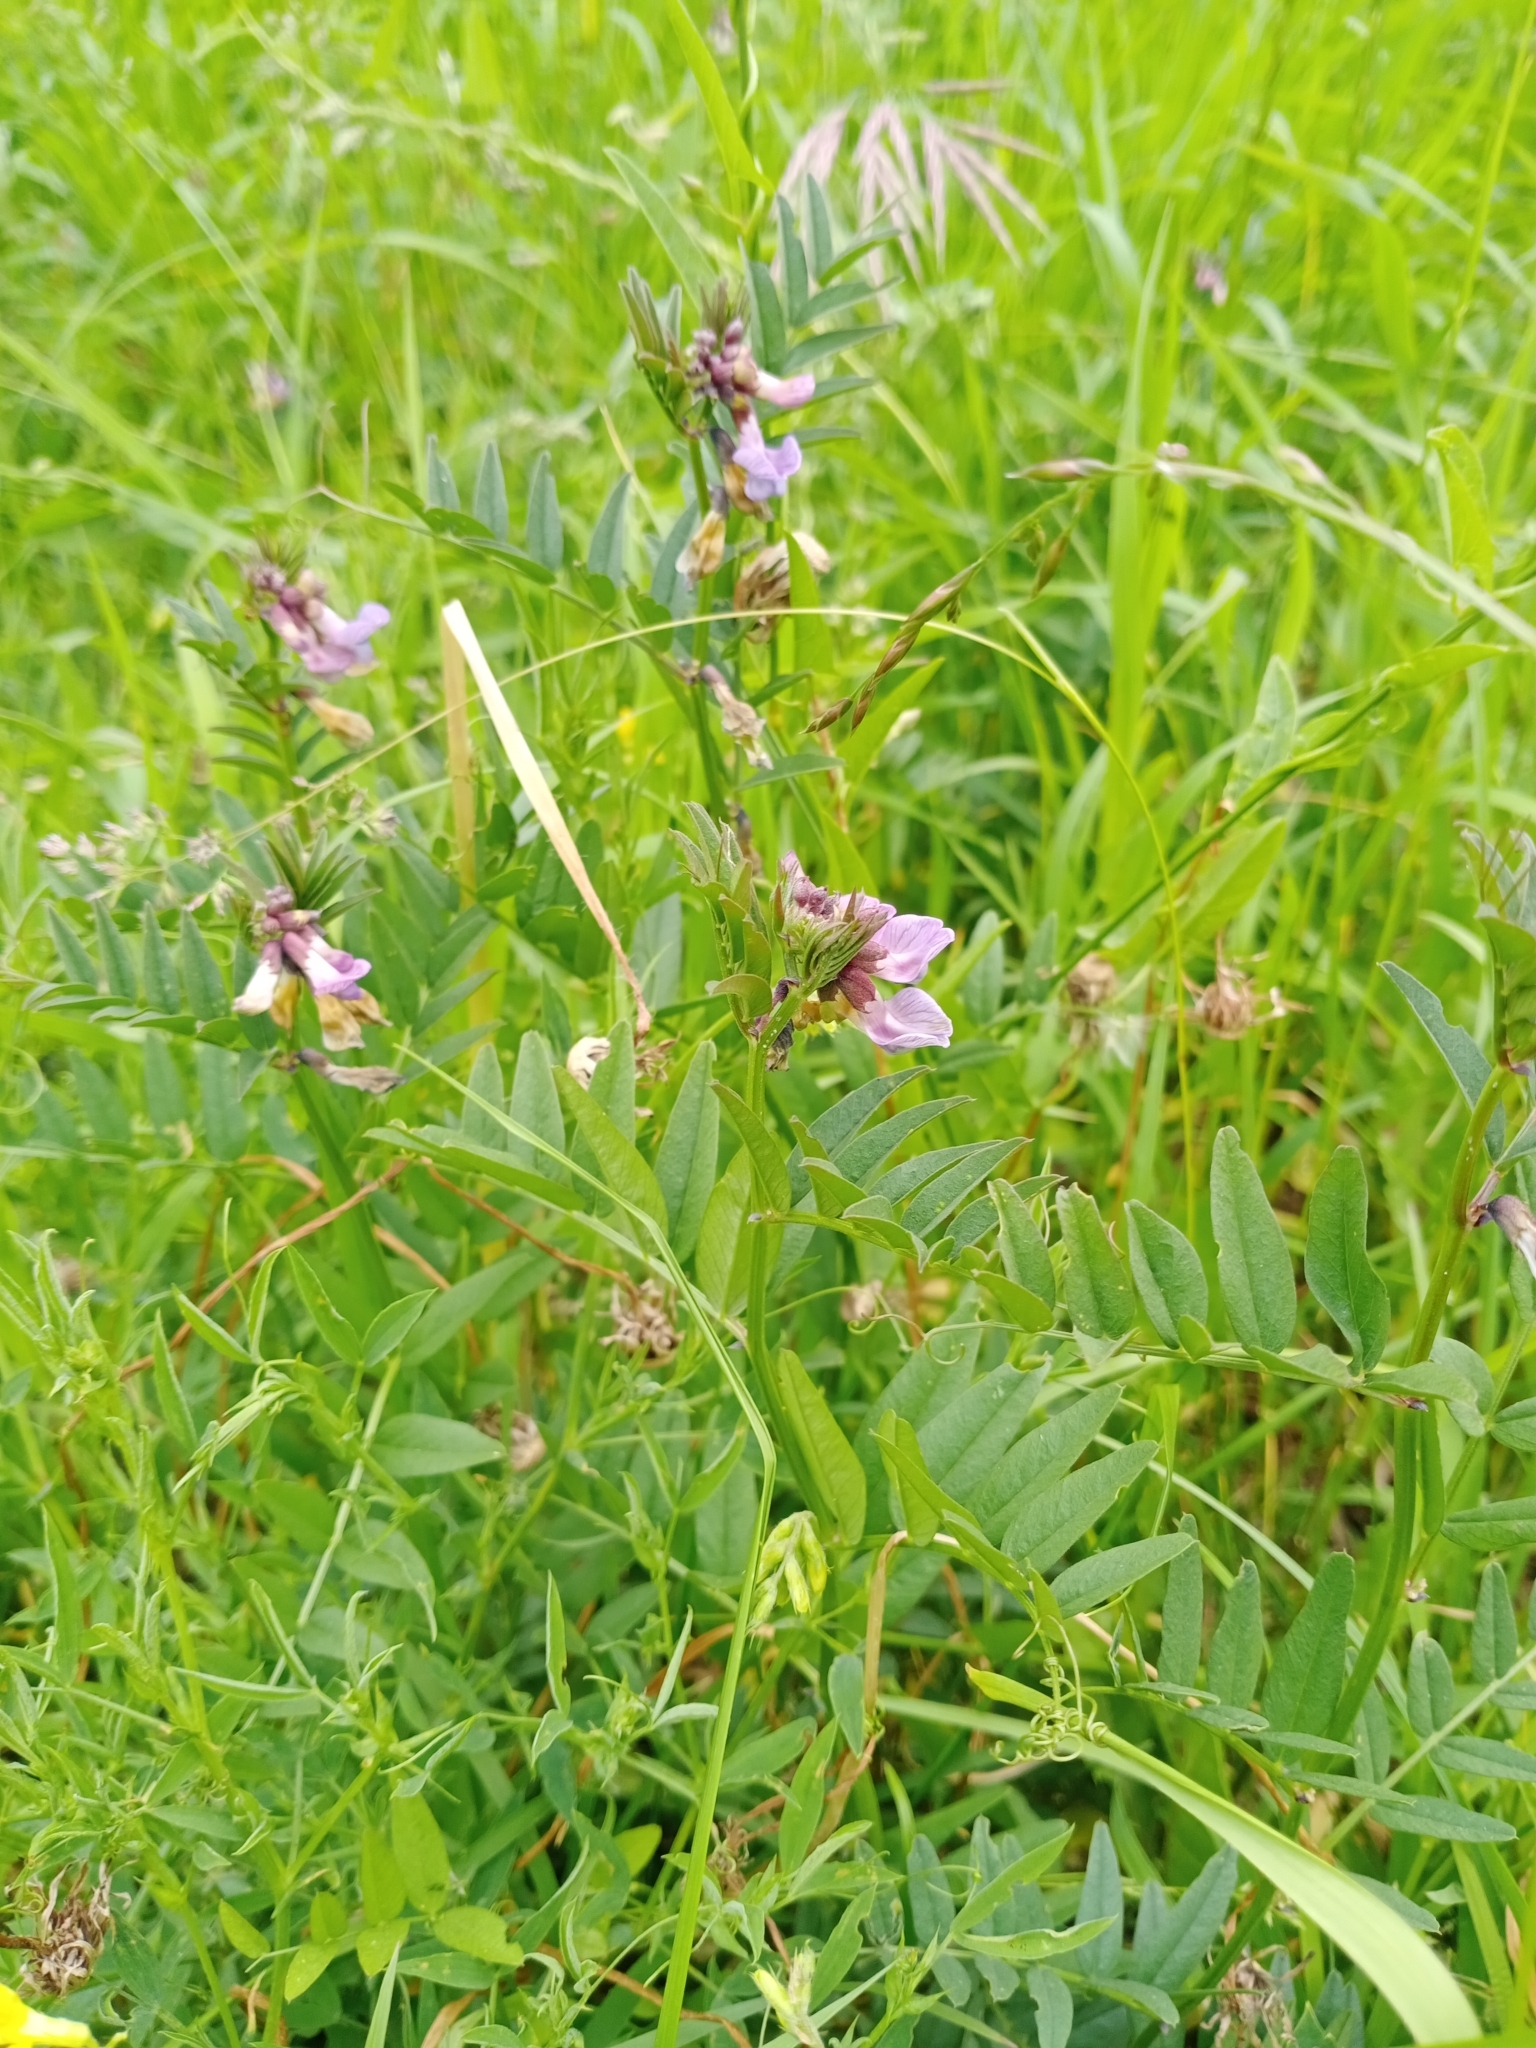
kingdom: Plantae
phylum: Tracheophyta
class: Magnoliopsida
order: Fabales
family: Fabaceae
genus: Vicia
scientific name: Vicia sepium
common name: Bush vetch
